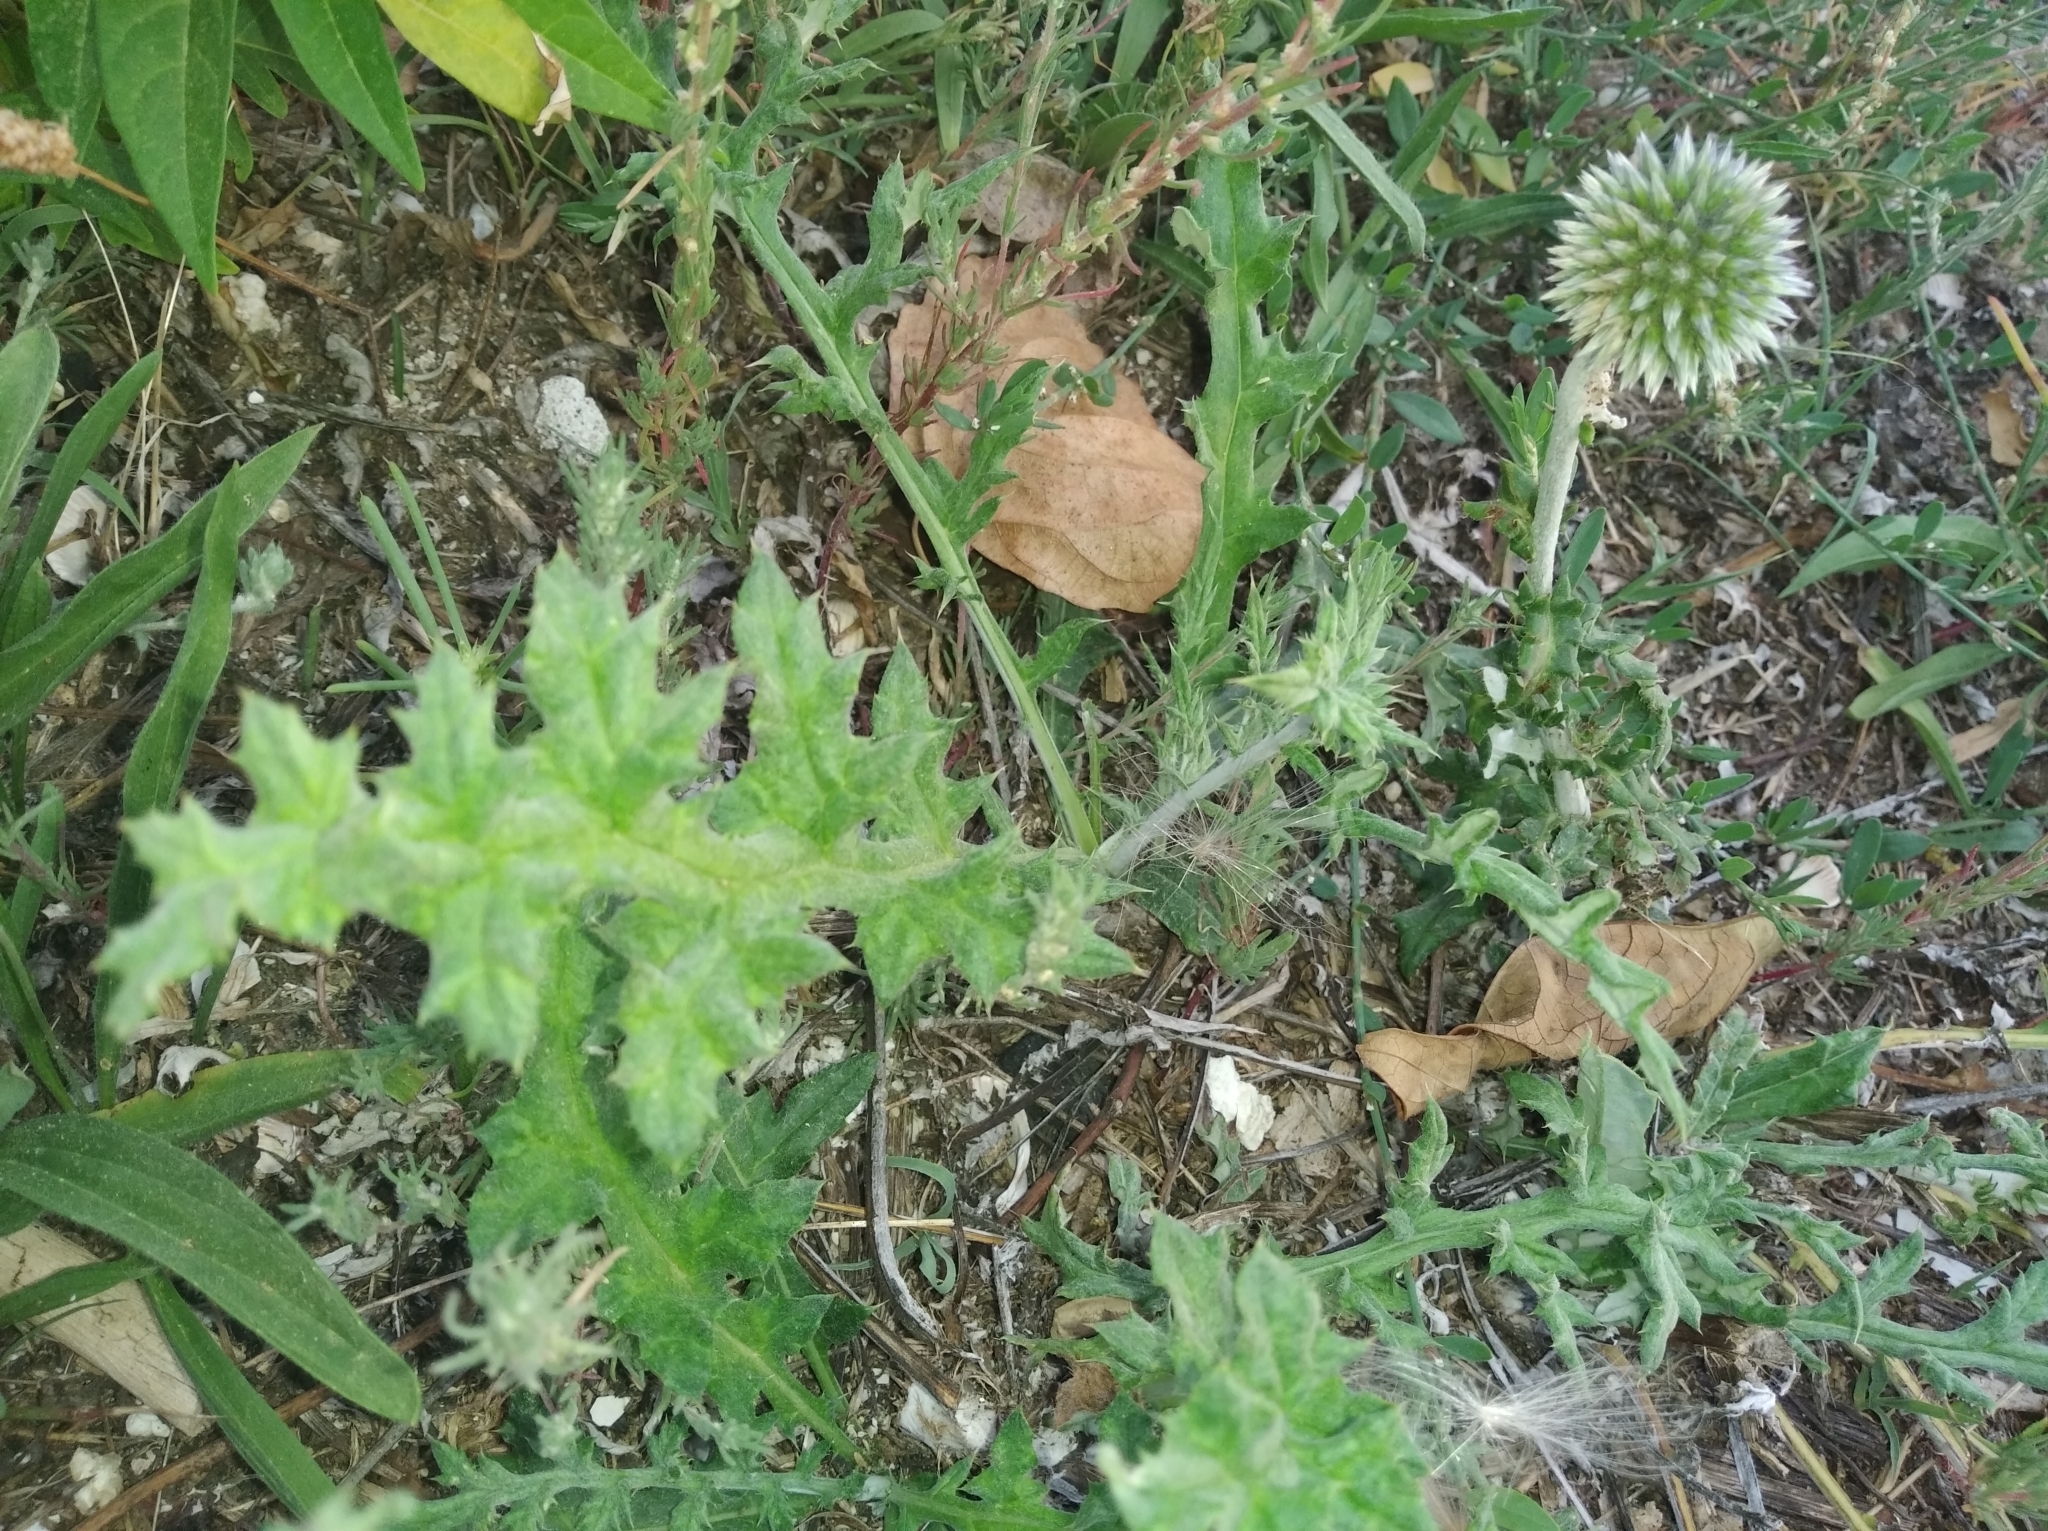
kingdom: Plantae
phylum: Tracheophyta
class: Magnoliopsida
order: Asterales
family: Asteraceae
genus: Echinops
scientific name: Echinops ritro
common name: Globe thistle
